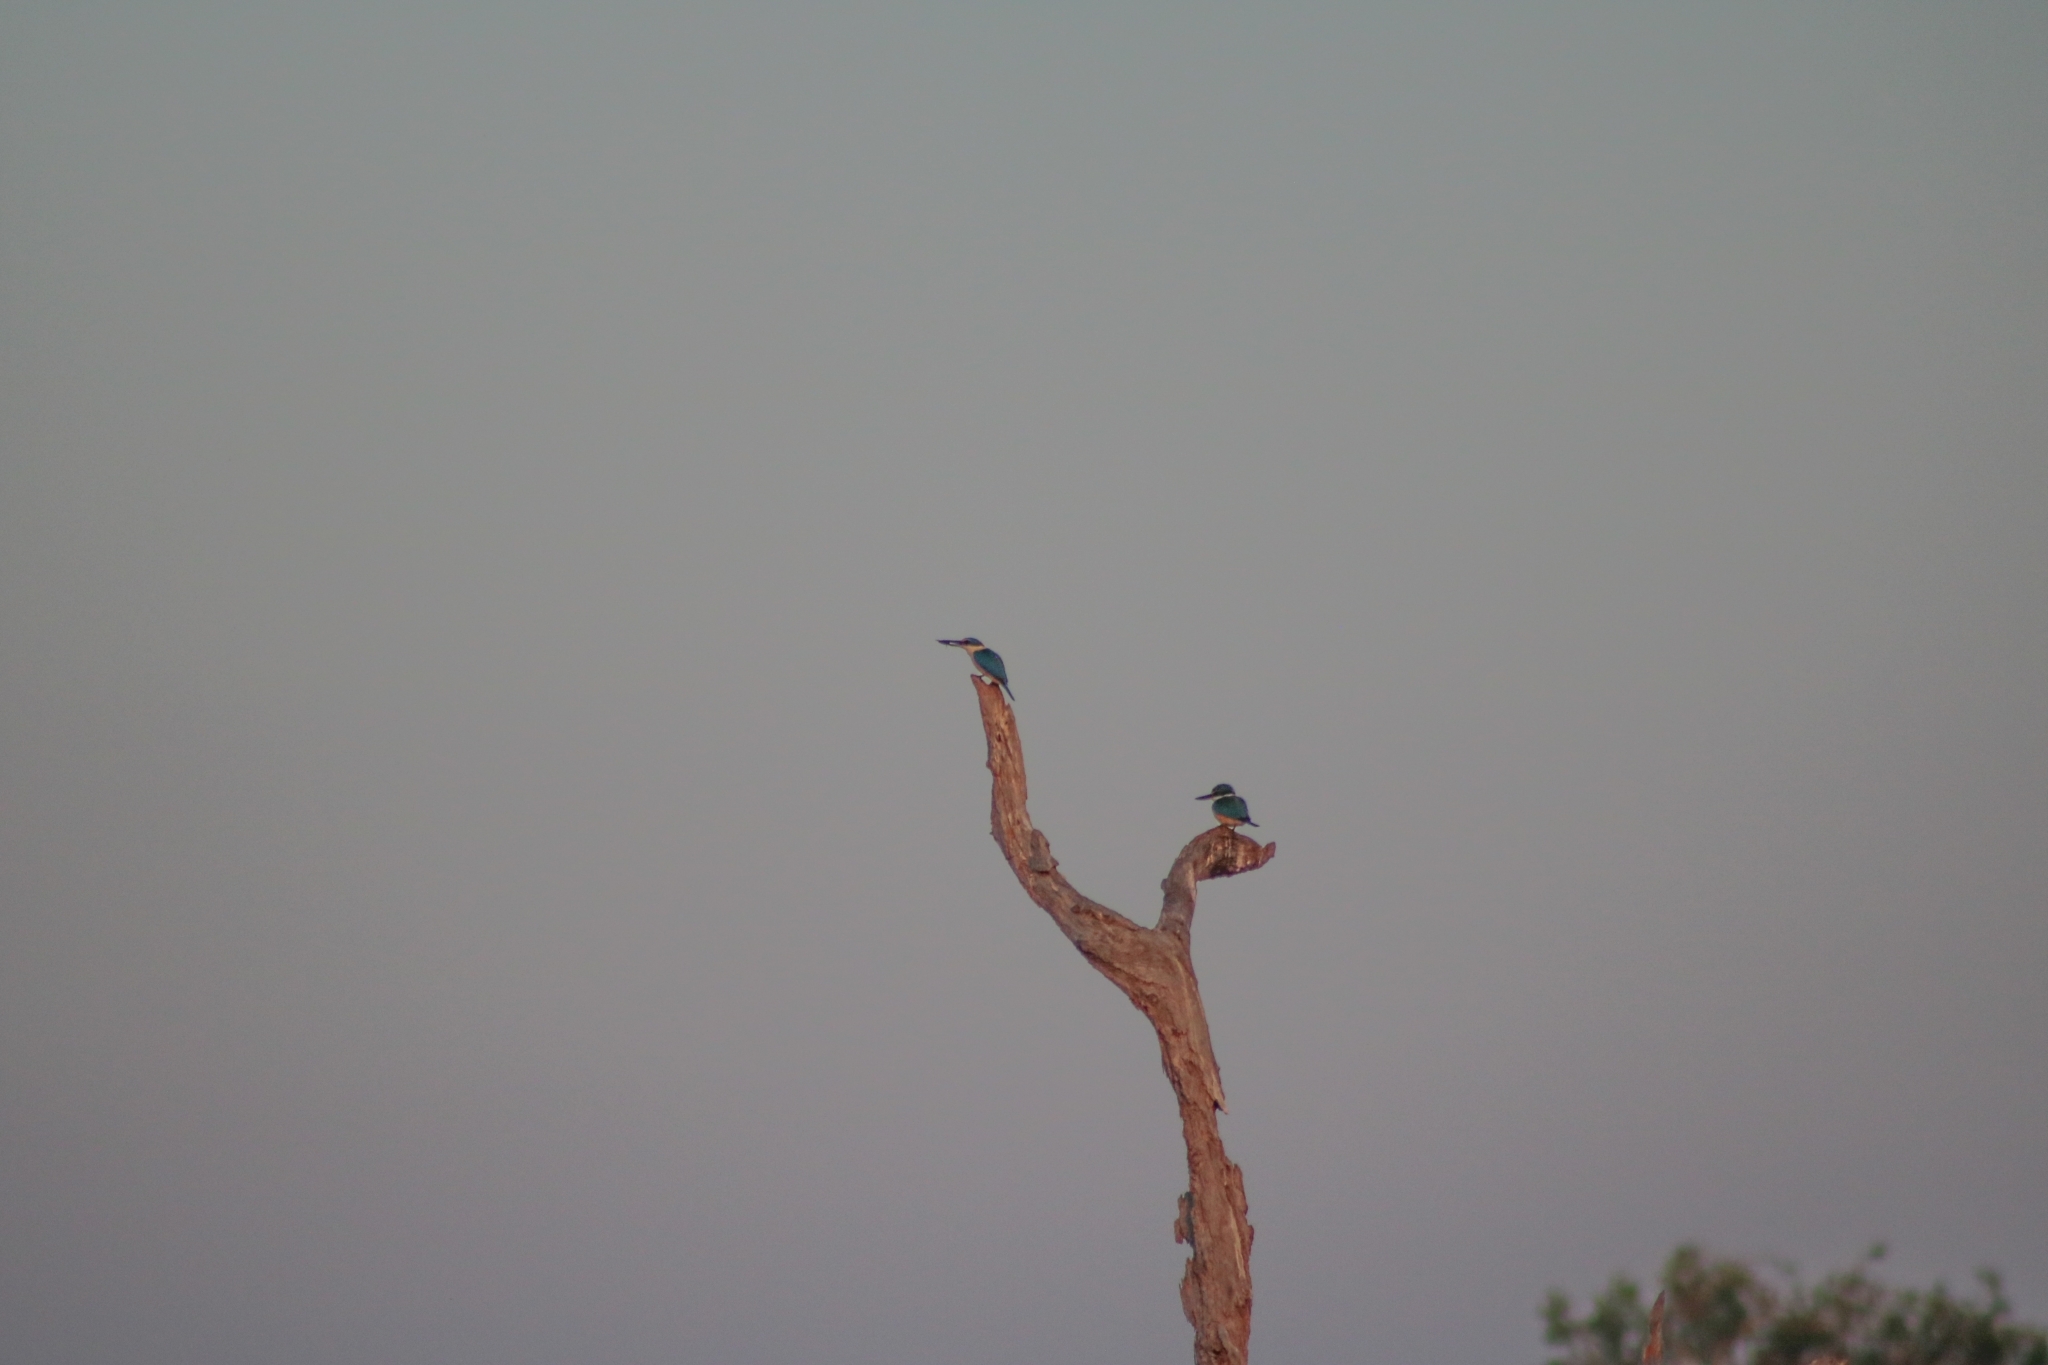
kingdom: Animalia
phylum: Chordata
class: Aves
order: Coraciiformes
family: Alcedinidae
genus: Todiramphus
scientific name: Todiramphus sanctus
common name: Sacred kingfisher
